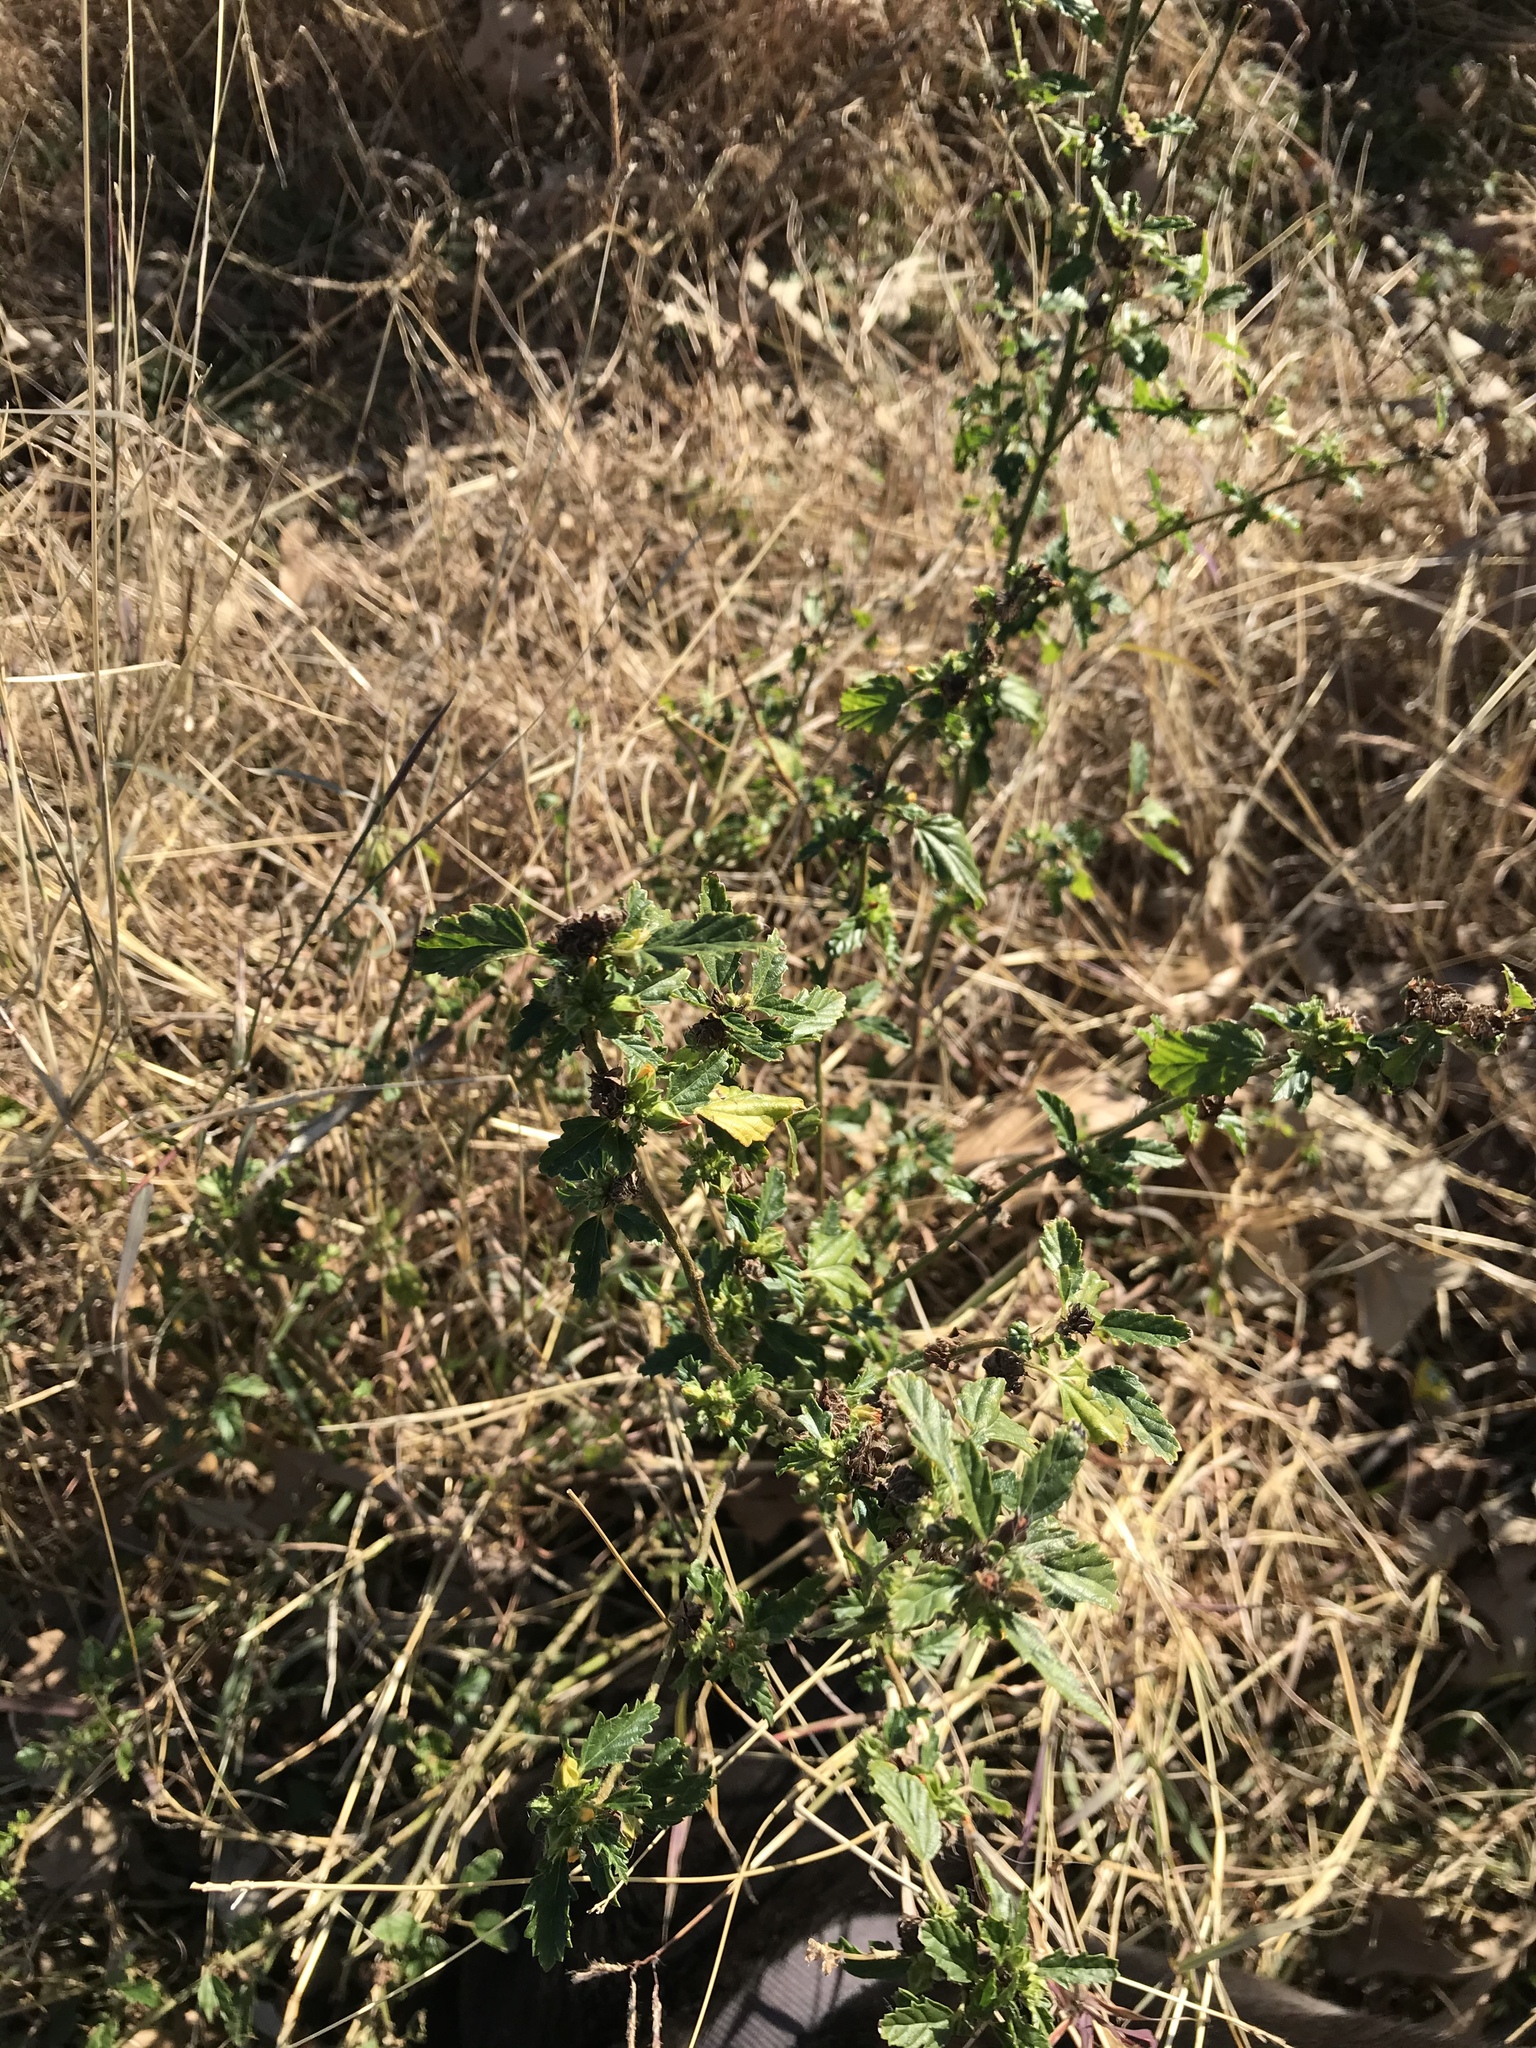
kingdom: Plantae
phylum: Tracheophyta
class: Magnoliopsida
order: Malvales
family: Malvaceae
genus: Malvastrum
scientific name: Malvastrum coromandelianum
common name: Threelobe false mallow
